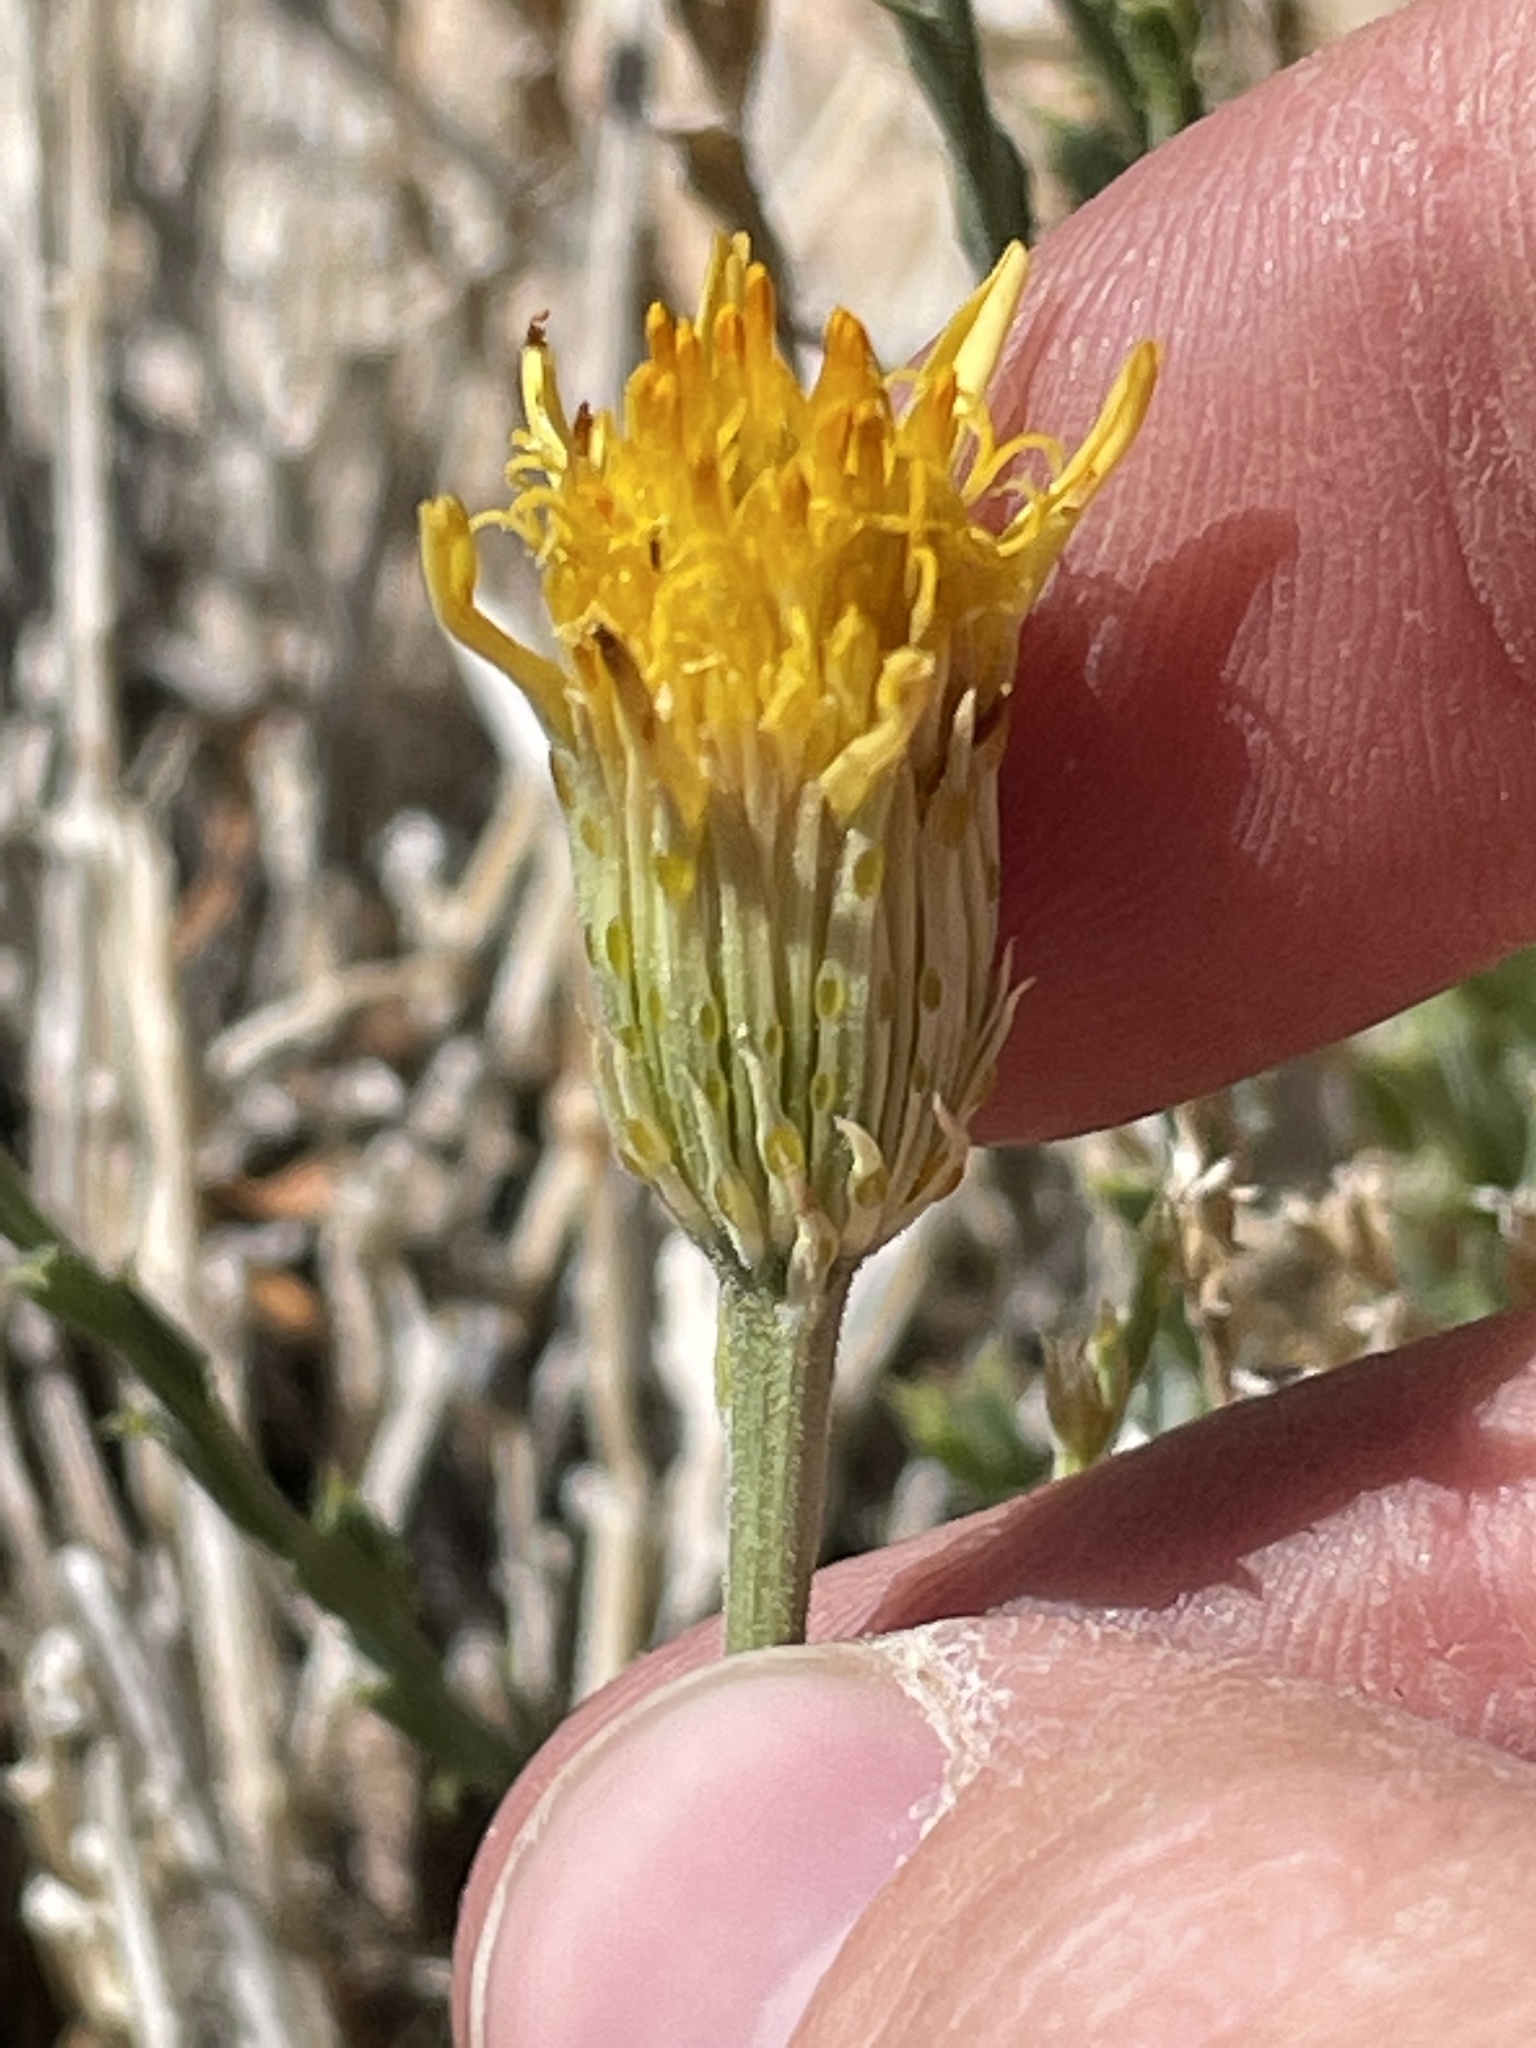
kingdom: Plantae
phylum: Tracheophyta
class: Magnoliopsida
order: Asterales
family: Asteraceae
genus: Adenophyllum
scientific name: Adenophyllum cooperi
